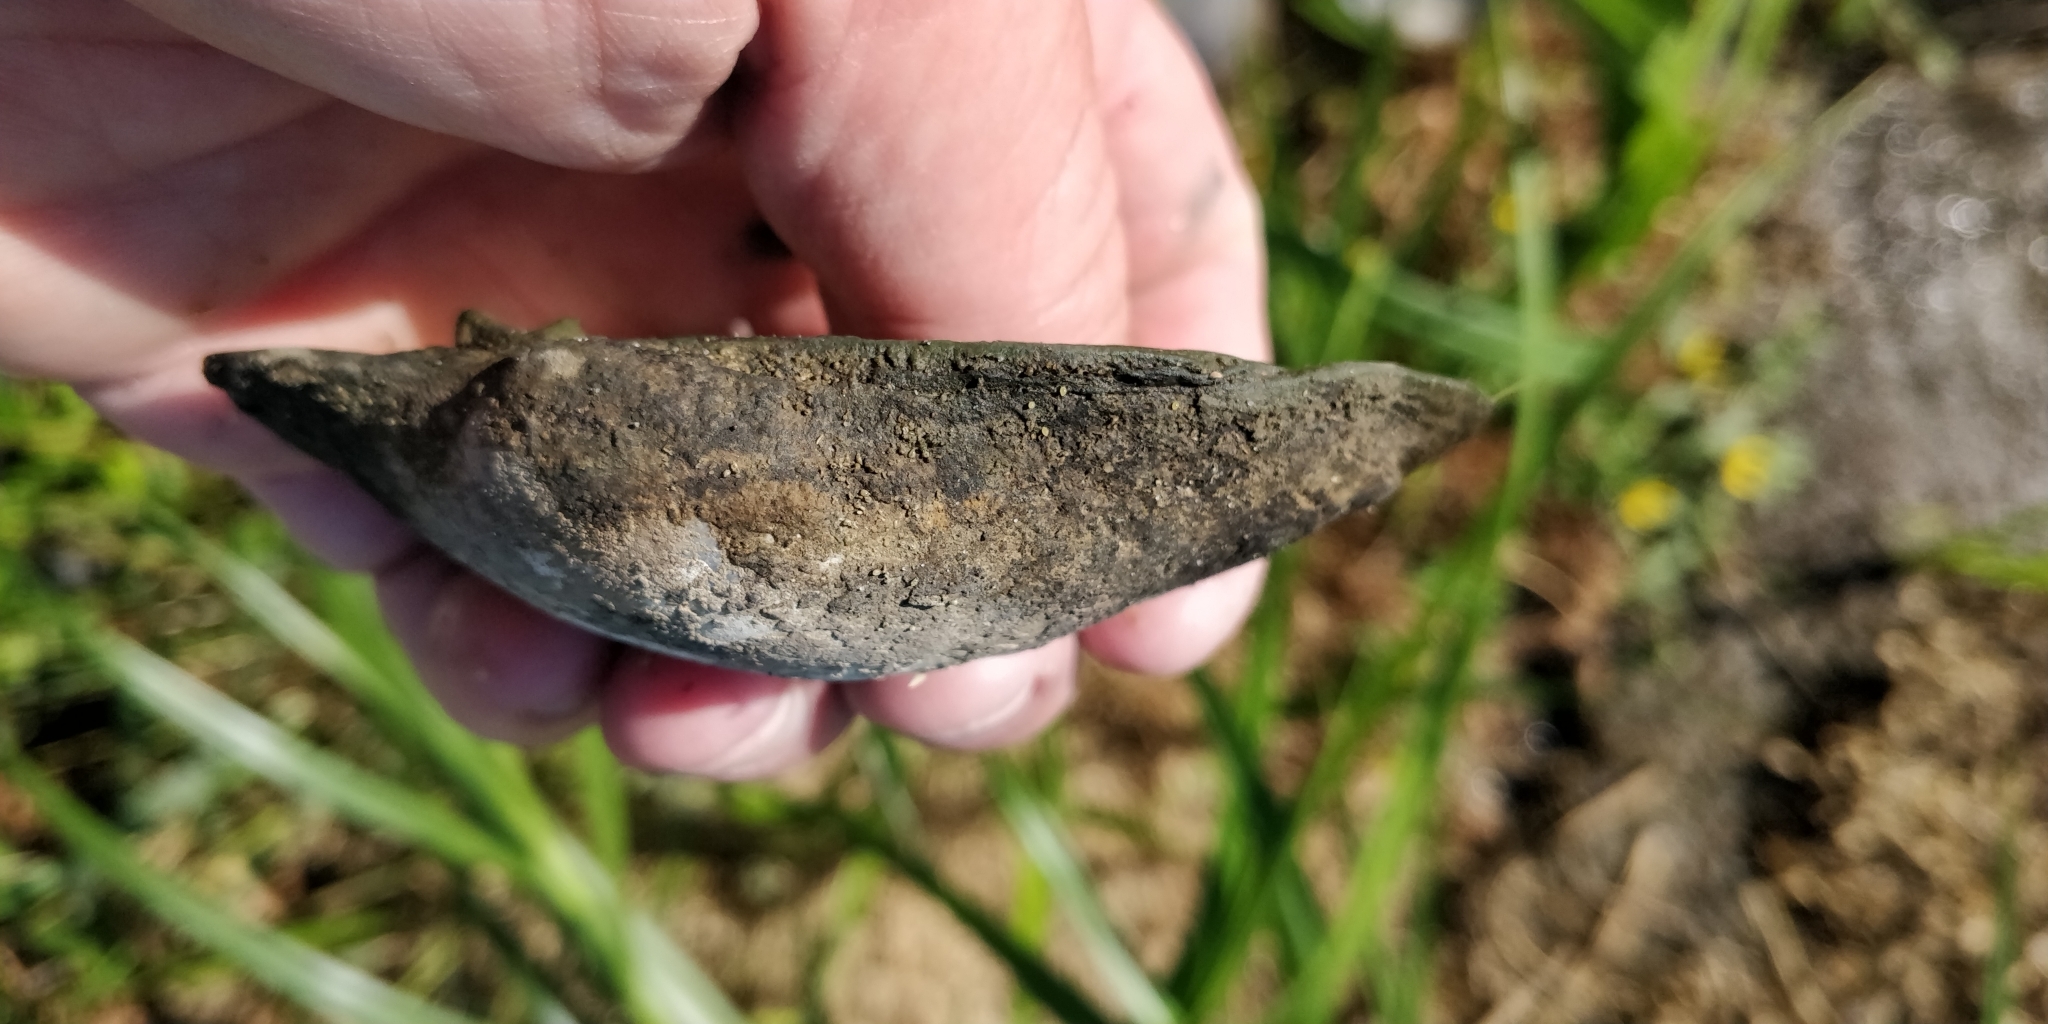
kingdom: Animalia
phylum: Mollusca
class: Bivalvia
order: Unionida
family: Unionidae
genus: Lampsilis
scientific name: Lampsilis cardium
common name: Plain pocketbook
